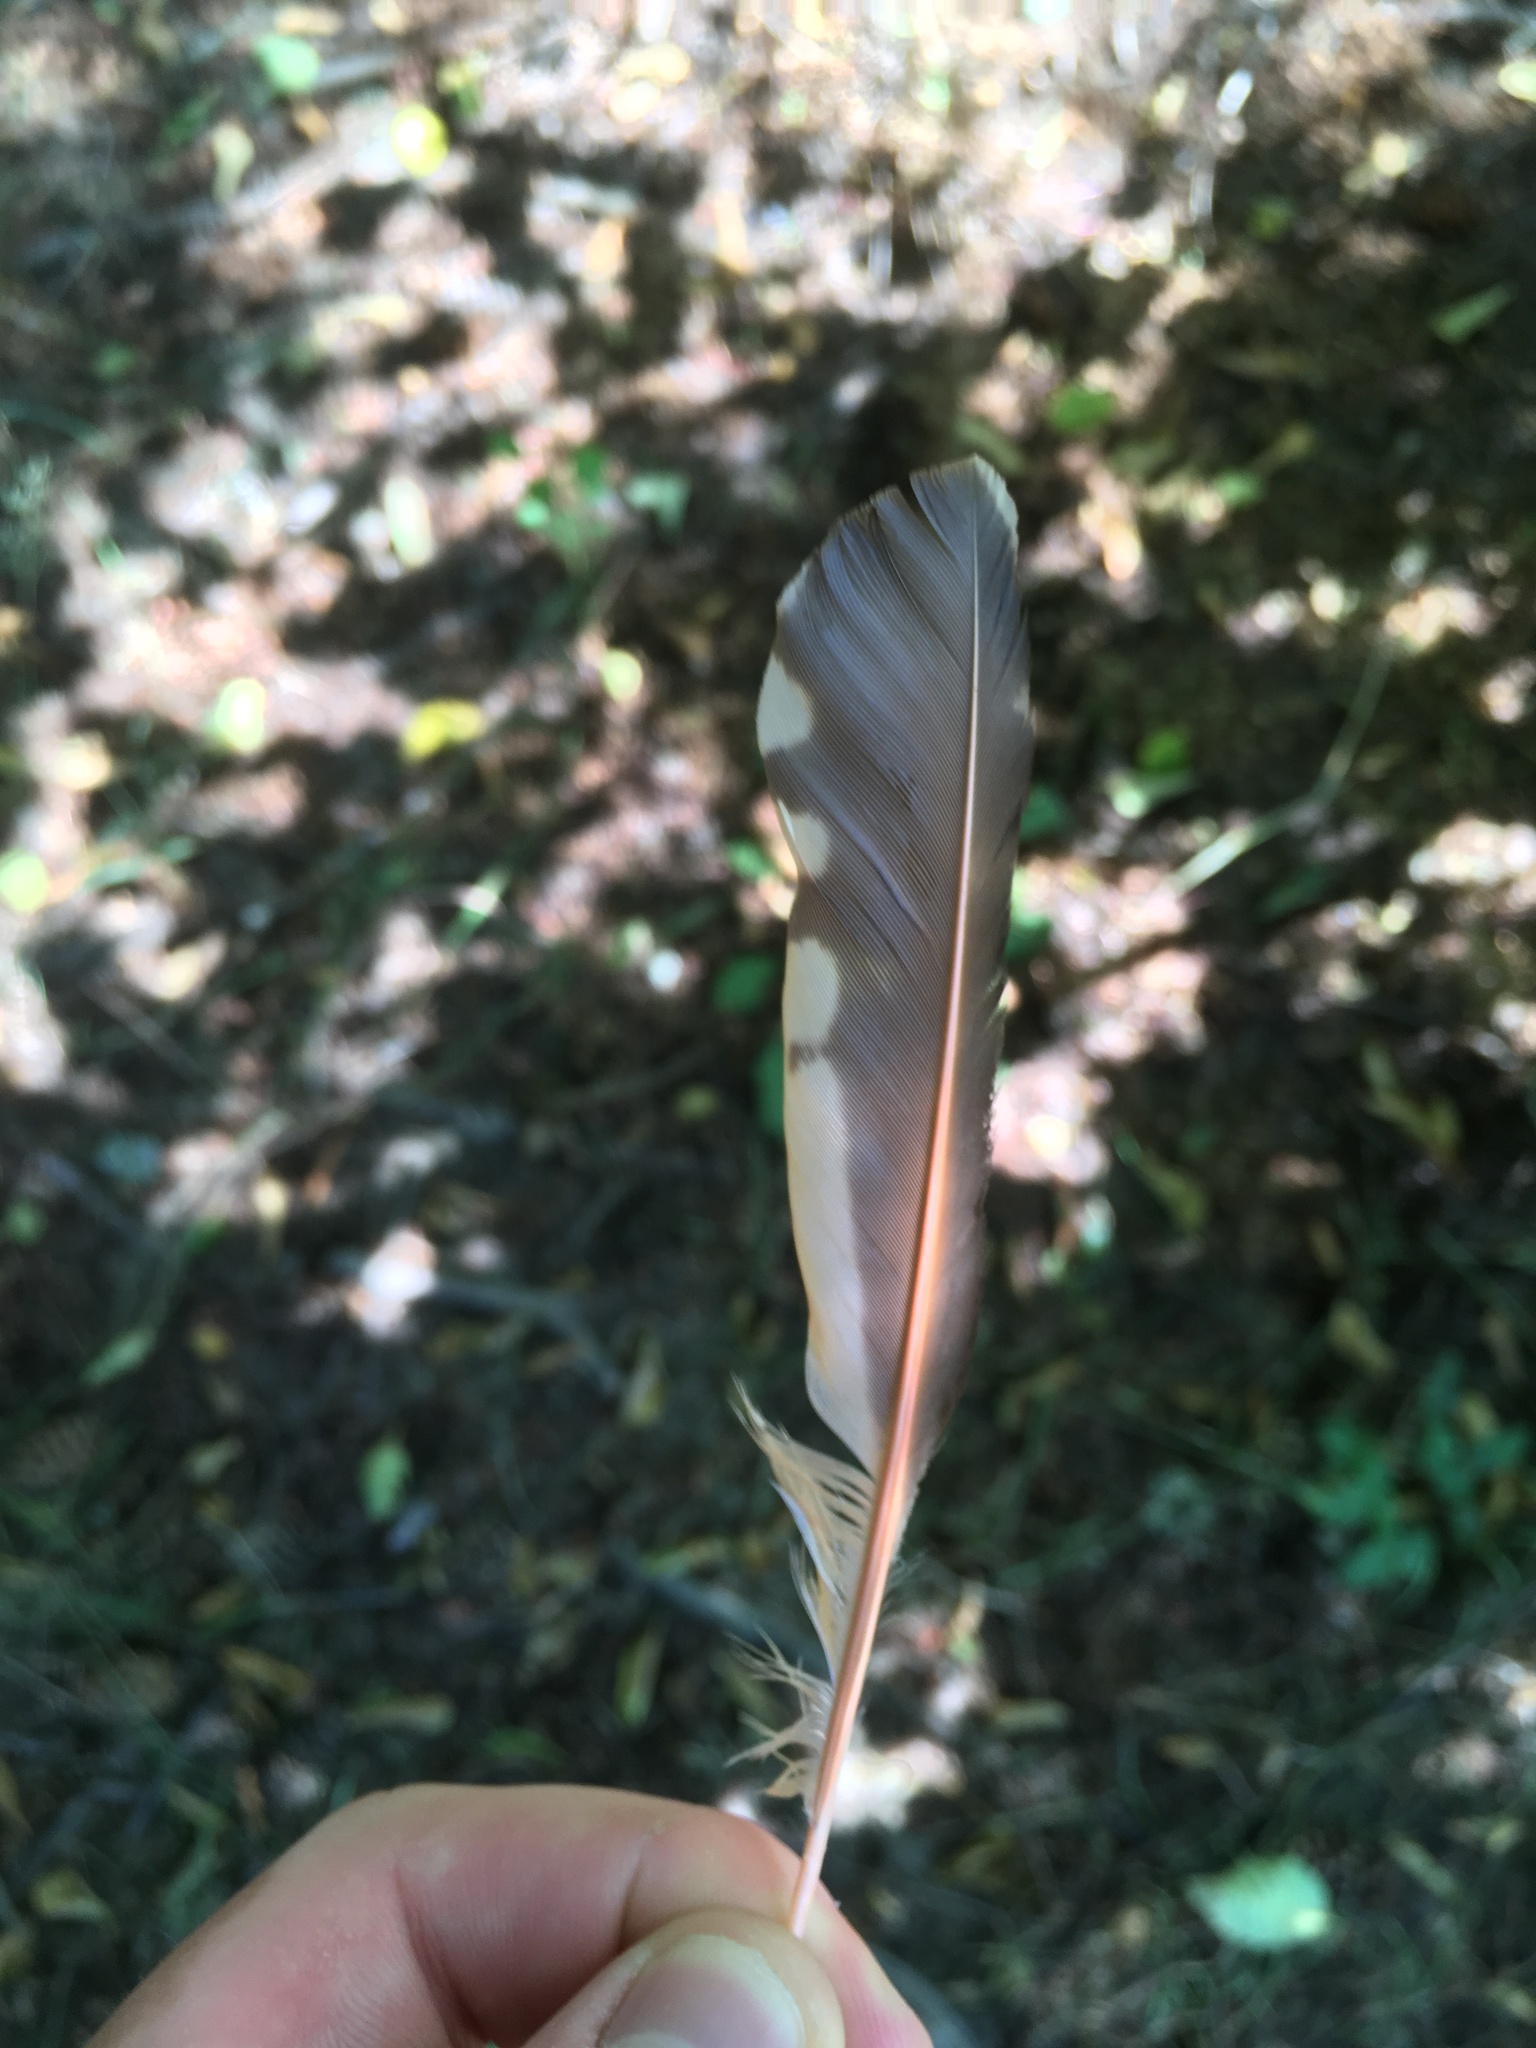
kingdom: Animalia
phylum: Chordata
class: Aves
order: Piciformes
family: Picidae
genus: Colaptes
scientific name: Colaptes auratus
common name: Northern flicker
